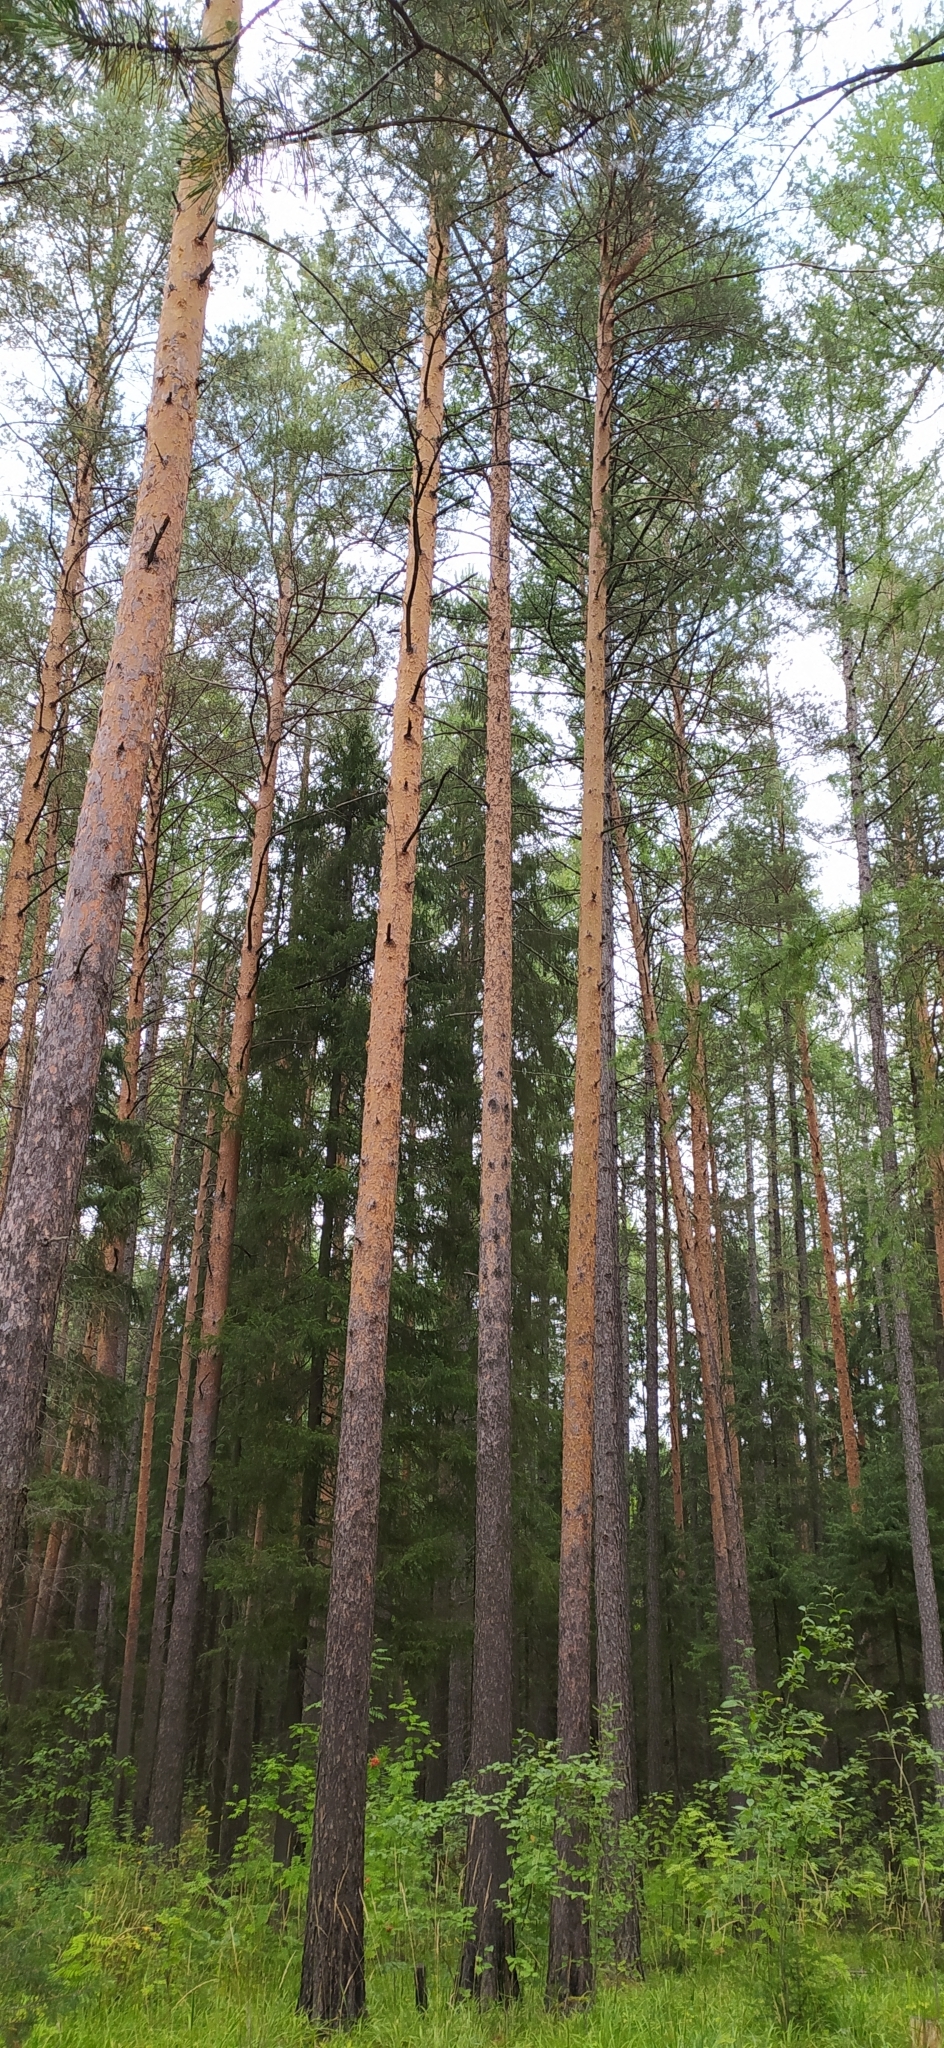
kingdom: Plantae
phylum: Tracheophyta
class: Pinopsida
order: Pinales
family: Pinaceae
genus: Pinus
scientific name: Pinus sylvestris
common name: Scots pine
